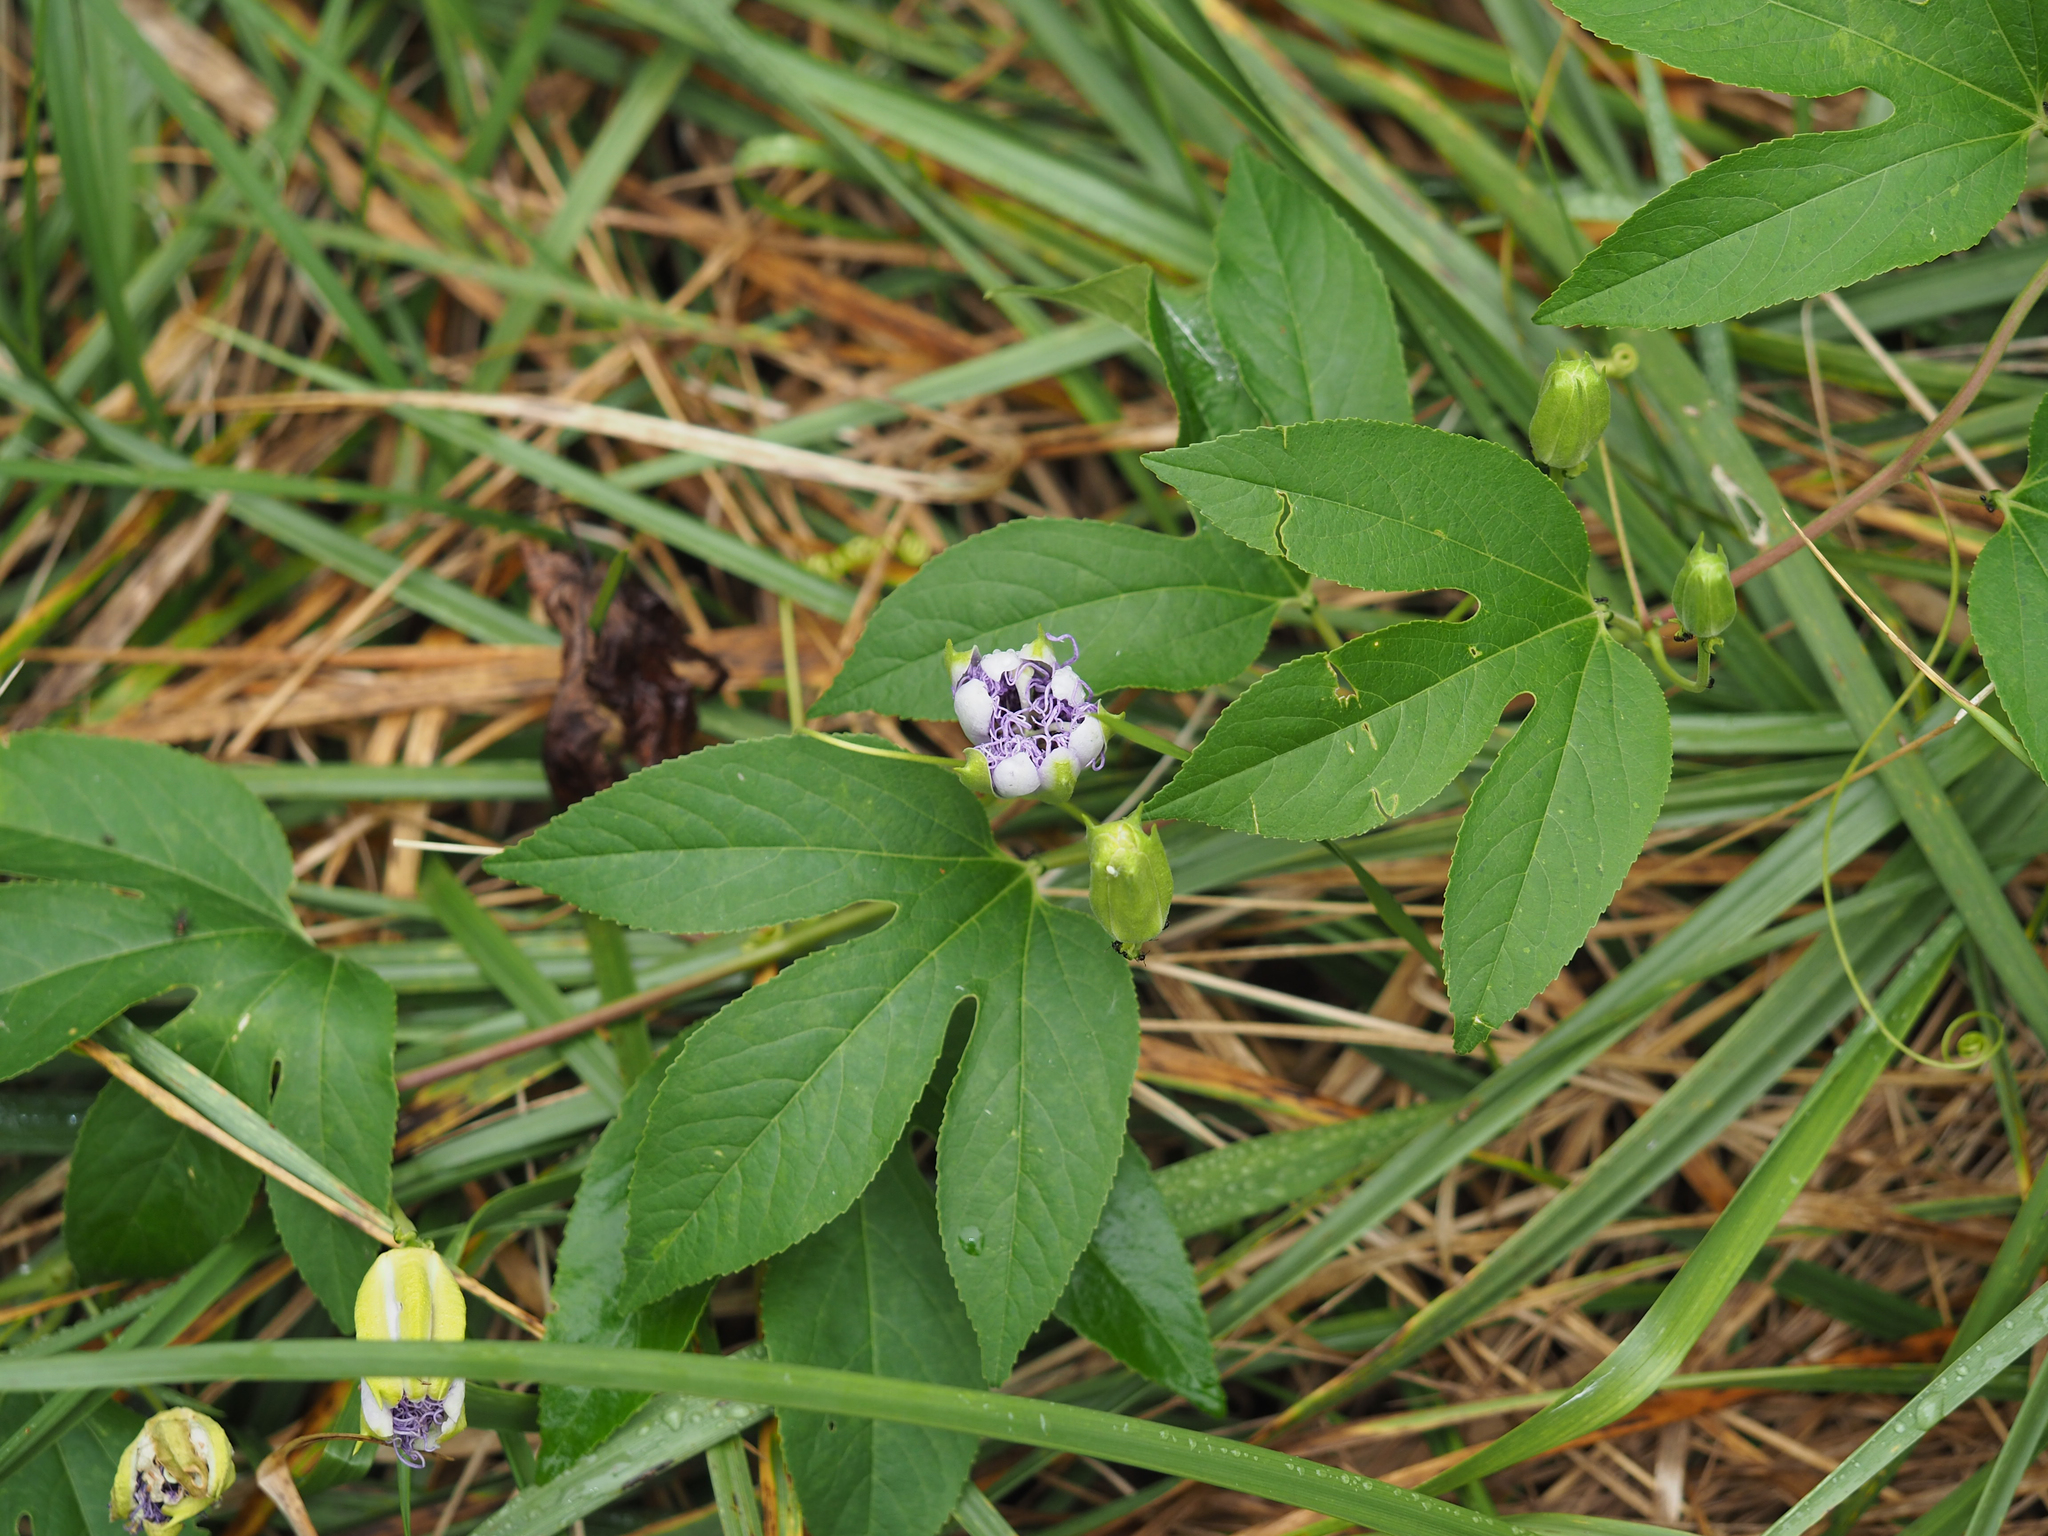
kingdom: Plantae
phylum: Tracheophyta
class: Magnoliopsida
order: Malpighiales
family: Passifloraceae
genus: Passiflora
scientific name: Passiflora incarnata
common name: Apricot-vine
